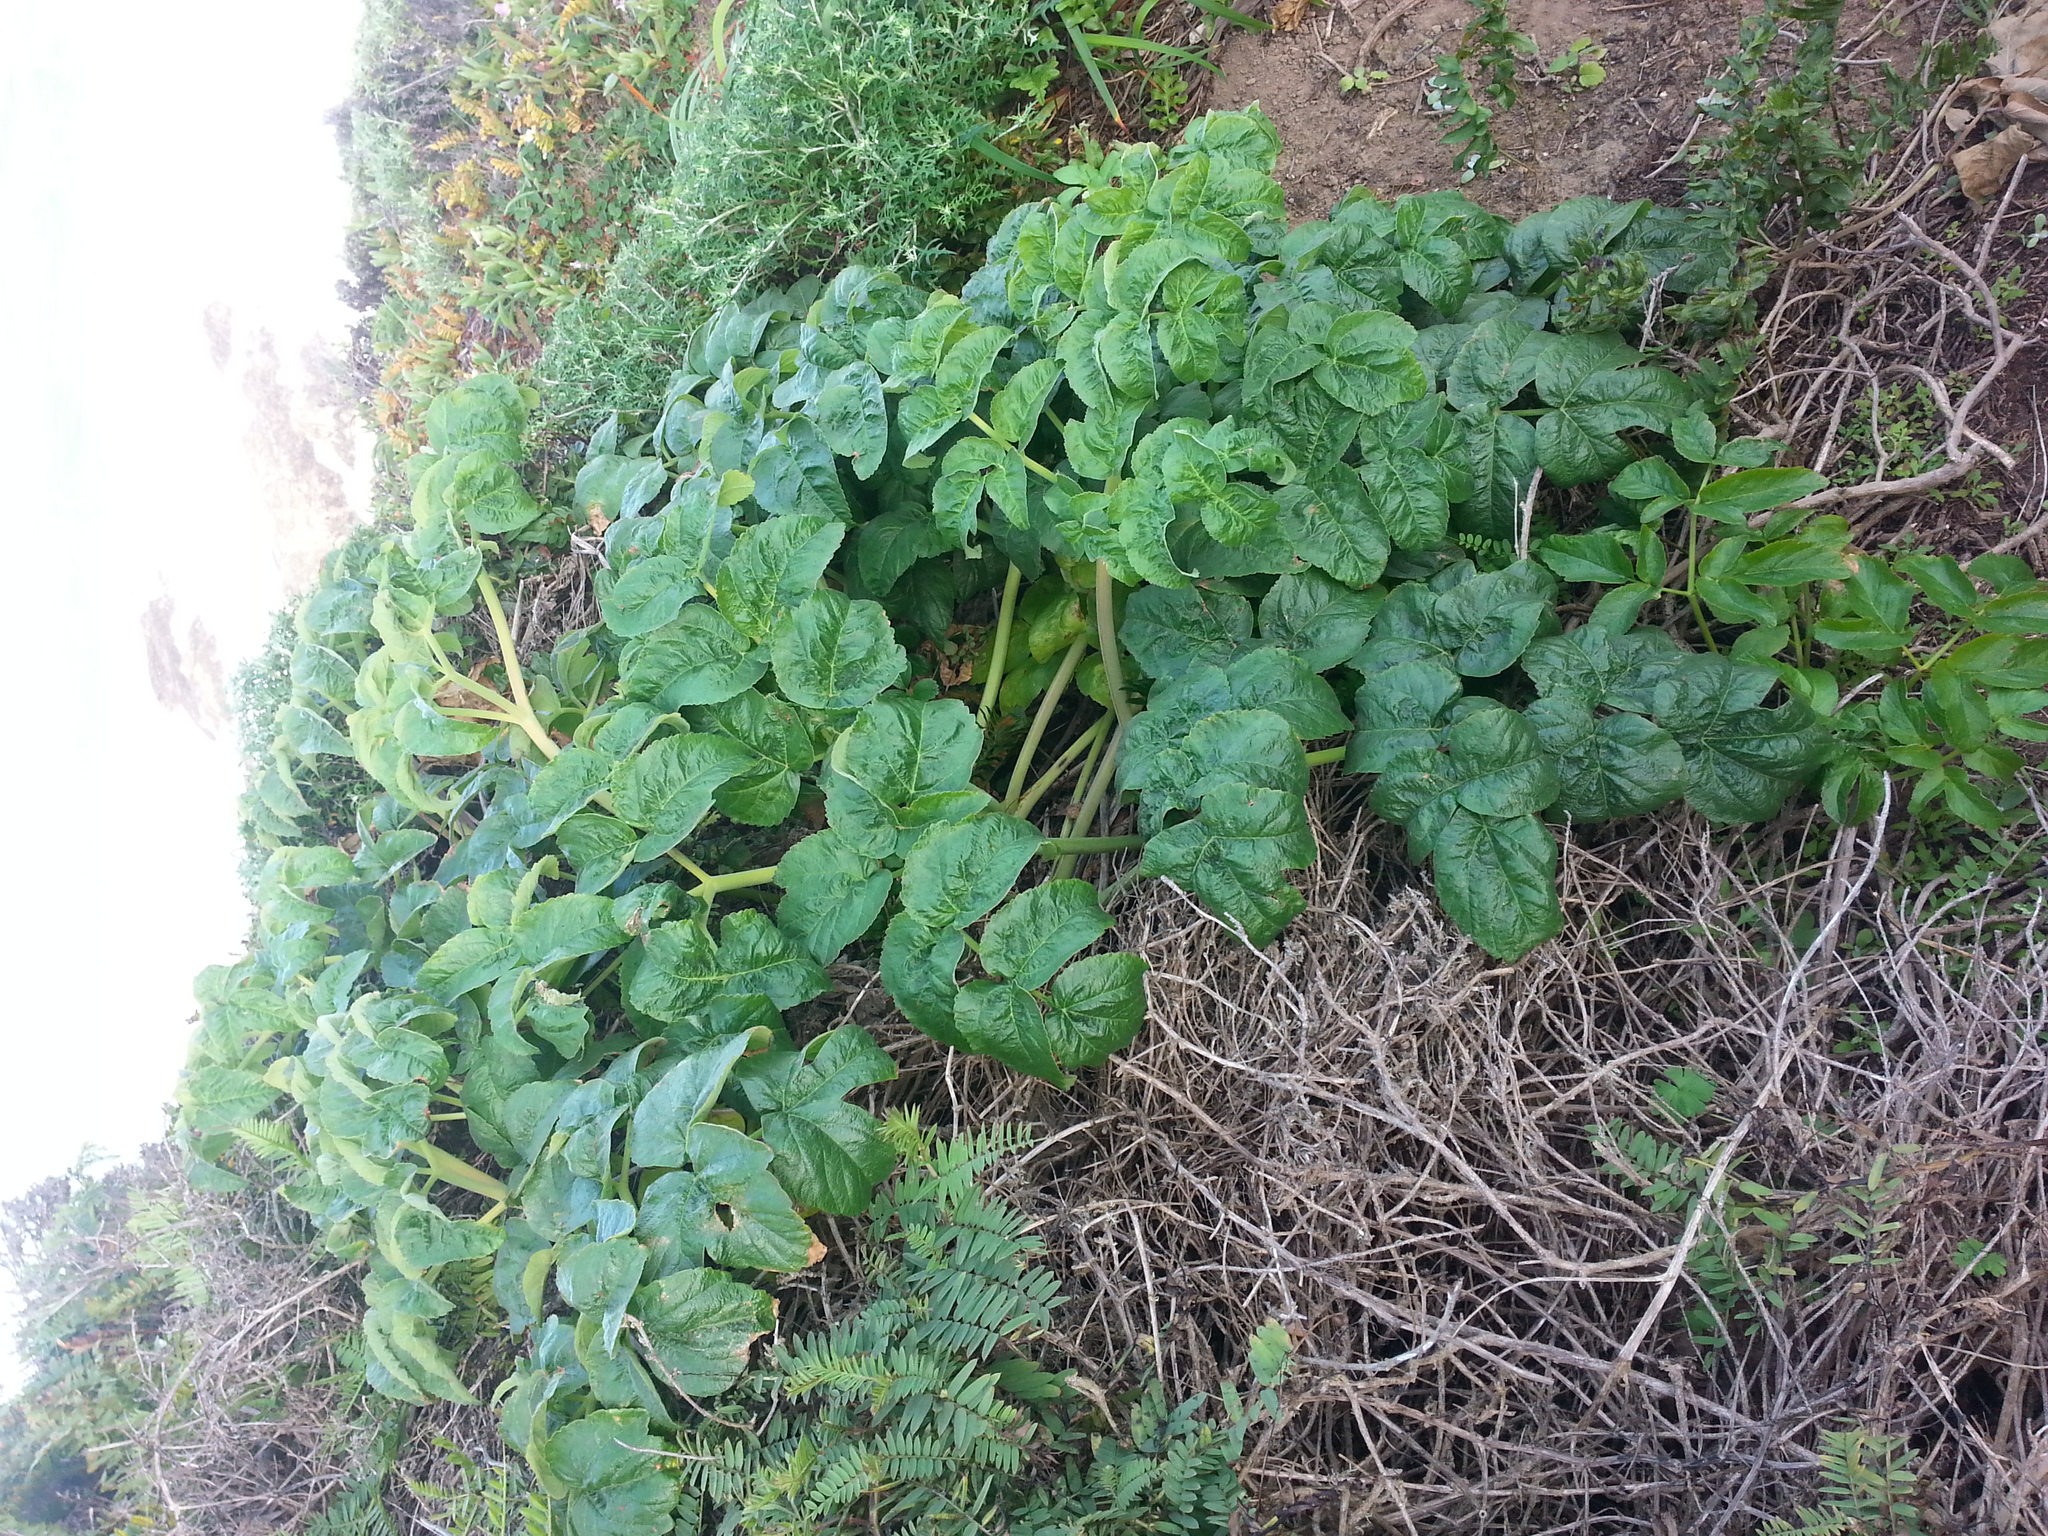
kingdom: Plantae
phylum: Tracheophyta
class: Magnoliopsida
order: Apiales
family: Apiaceae
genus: Angelica
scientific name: Angelica hendersonii
